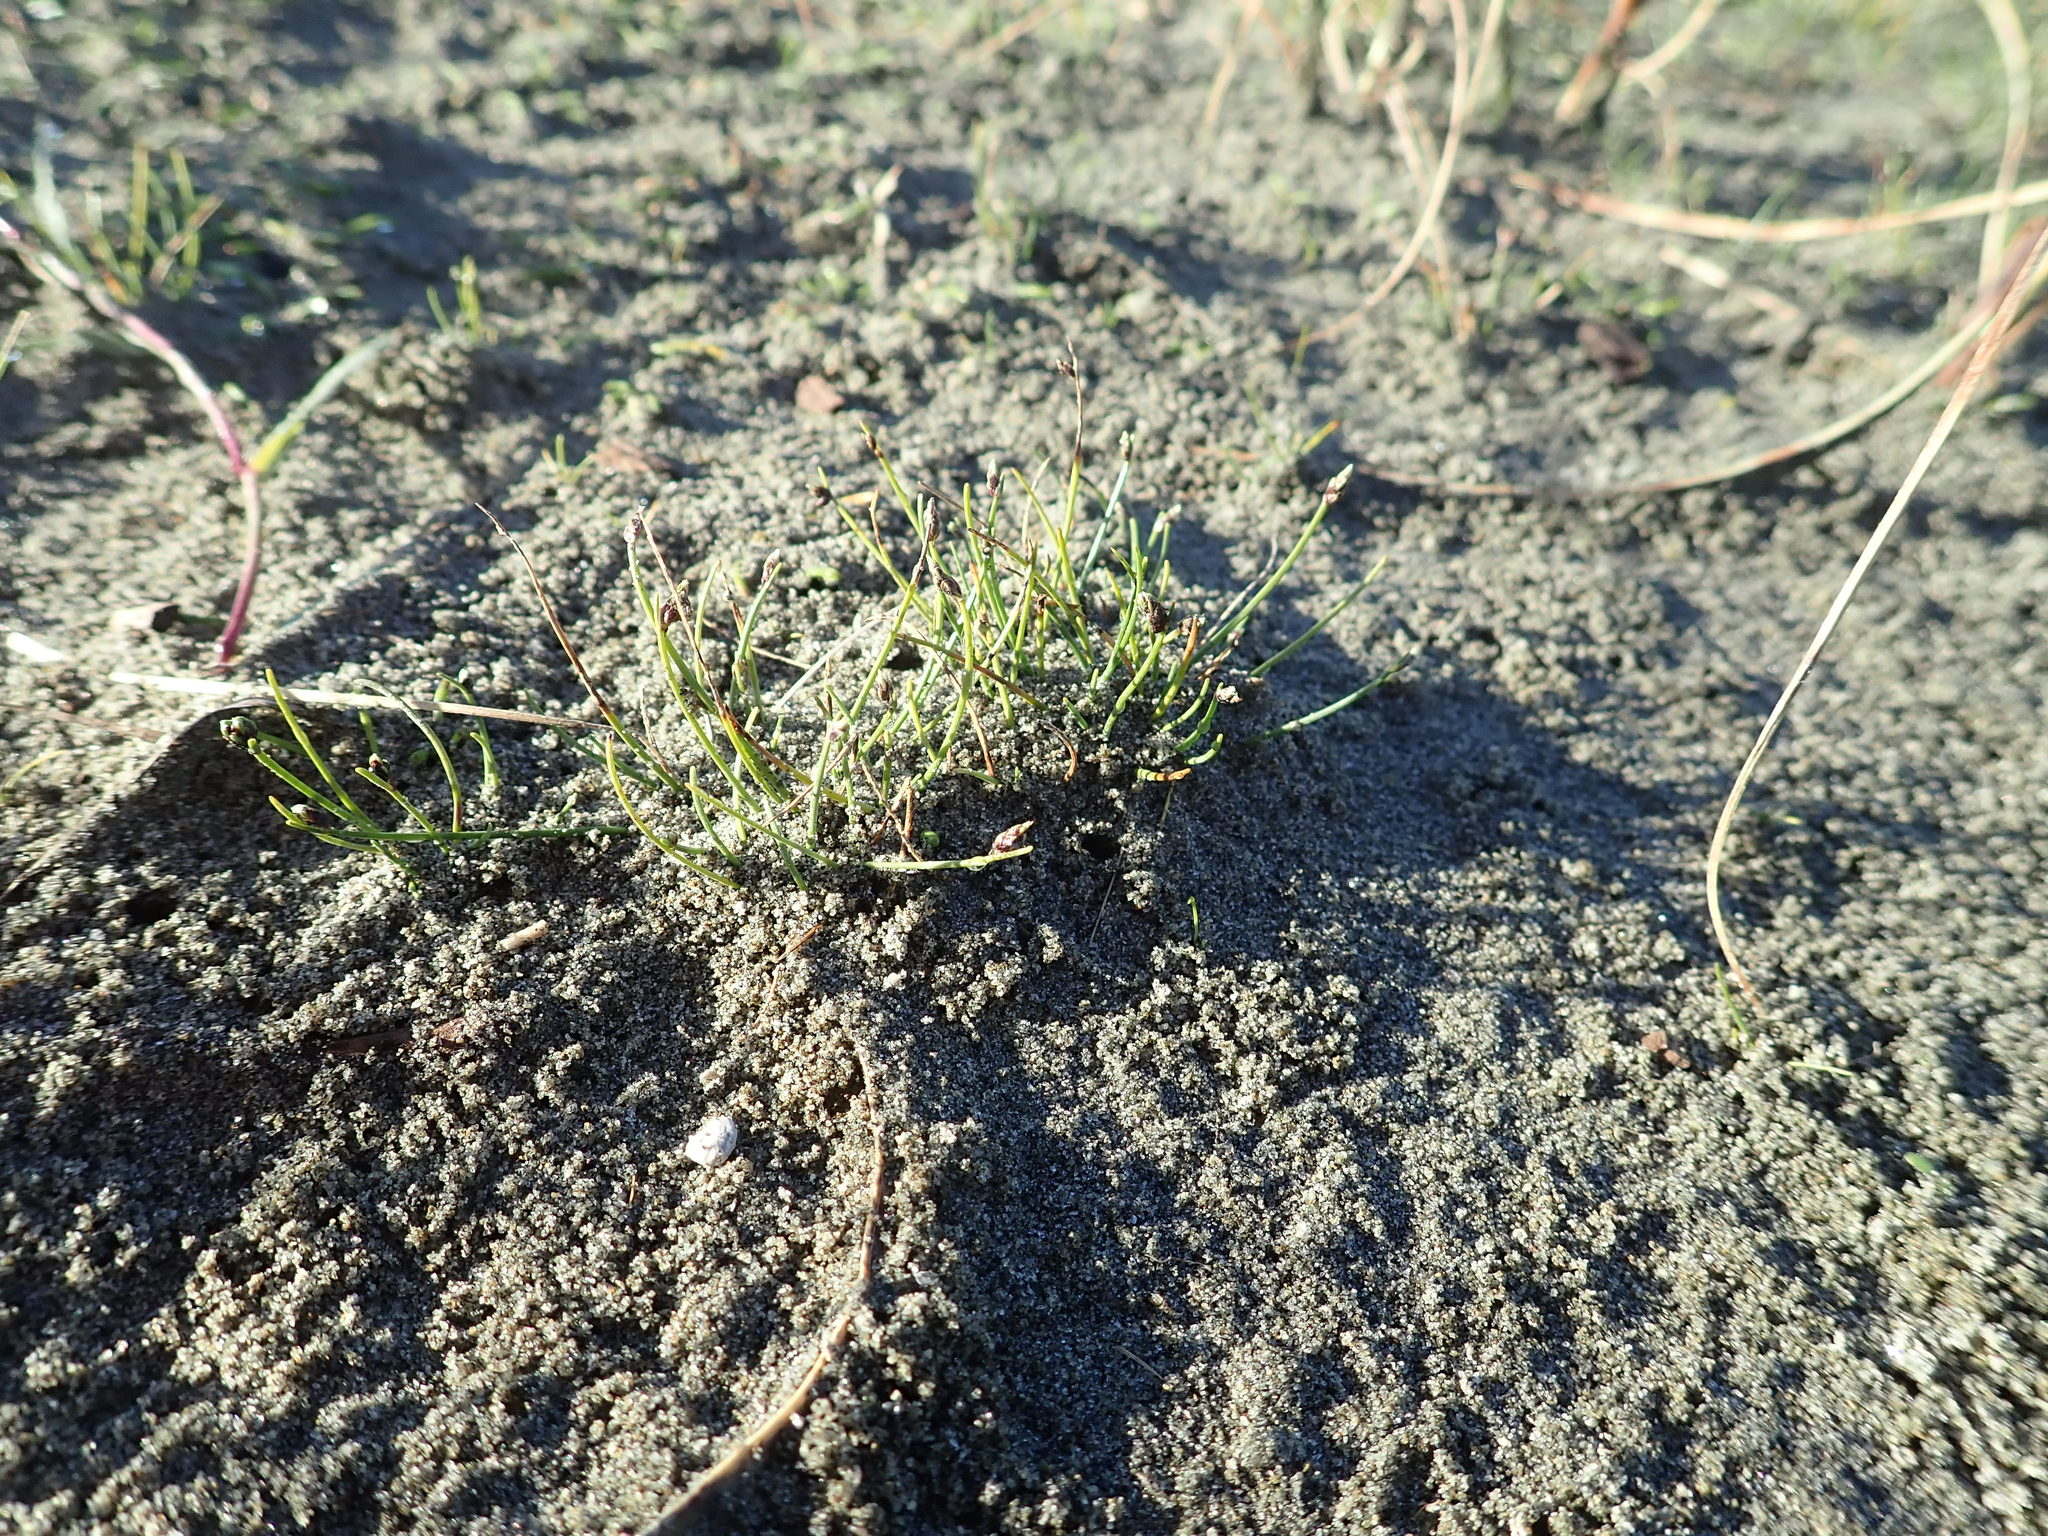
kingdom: Plantae
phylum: Tracheophyta
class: Liliopsida
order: Poales
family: Cyperaceae
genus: Isolepis
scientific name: Isolepis cernua
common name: Slender club-rush
